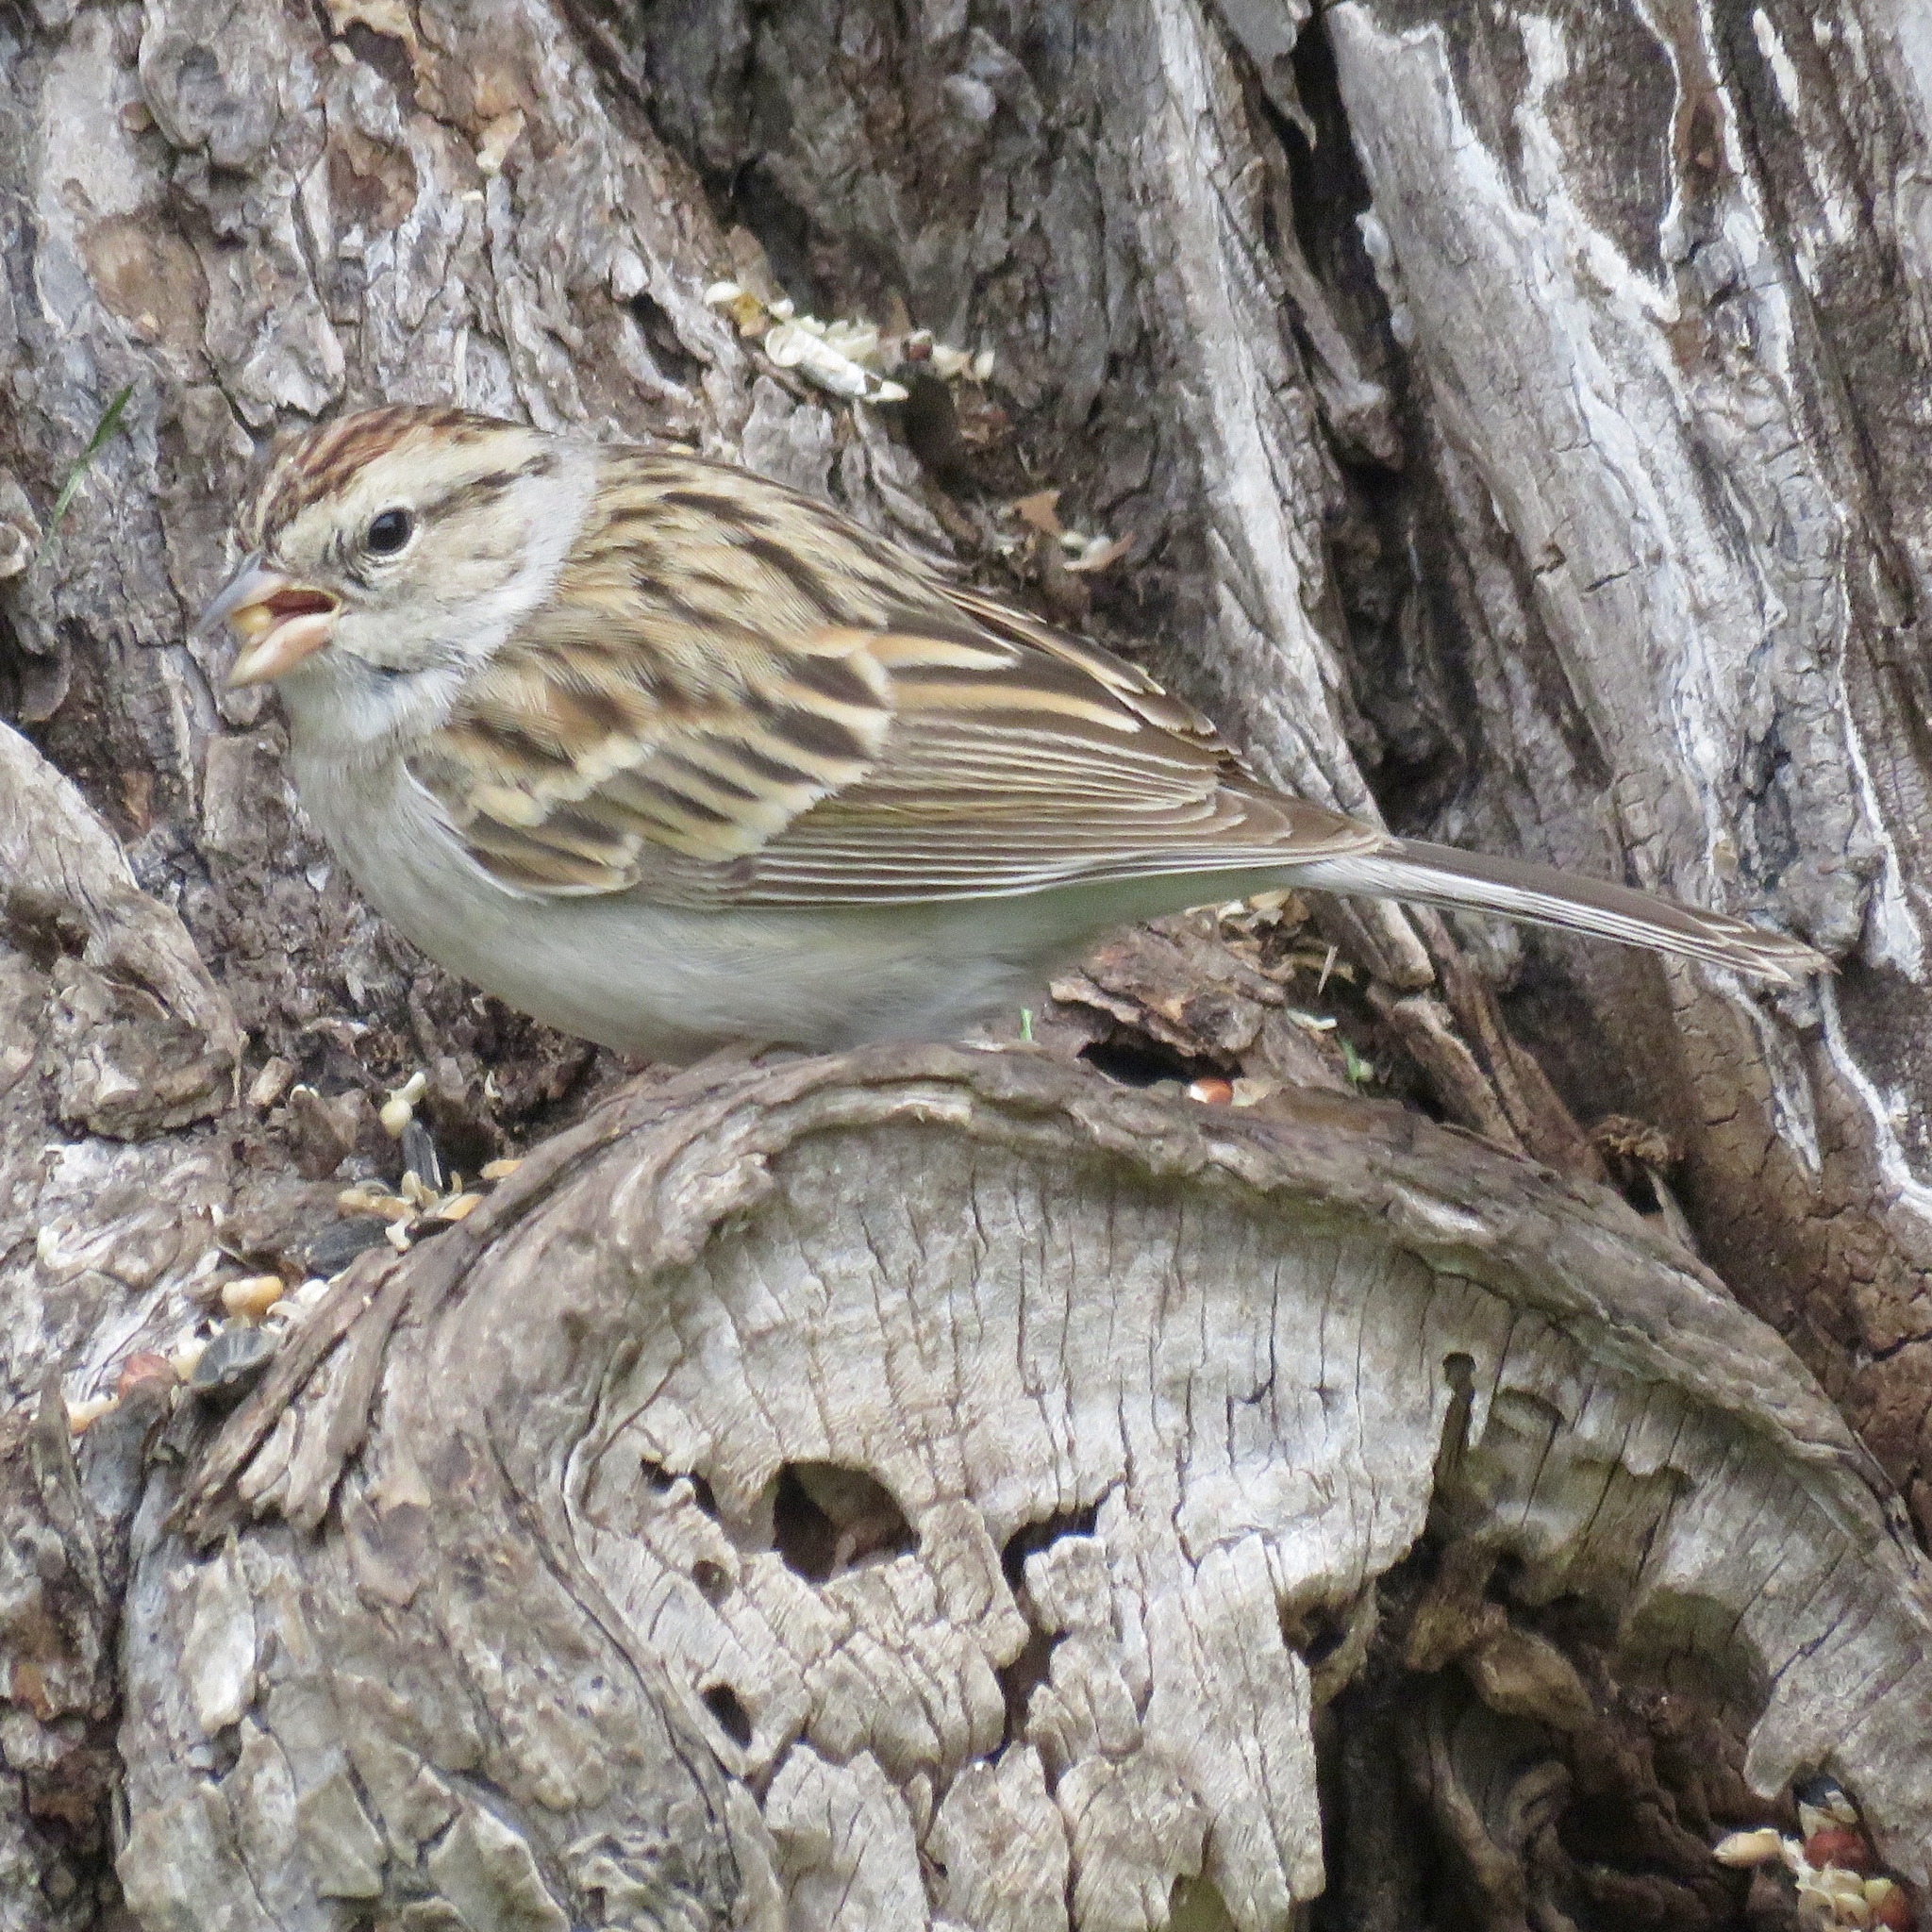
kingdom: Animalia
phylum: Chordata
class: Aves
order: Passeriformes
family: Passerellidae
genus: Spizella
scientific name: Spizella passerina
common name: Chipping sparrow
